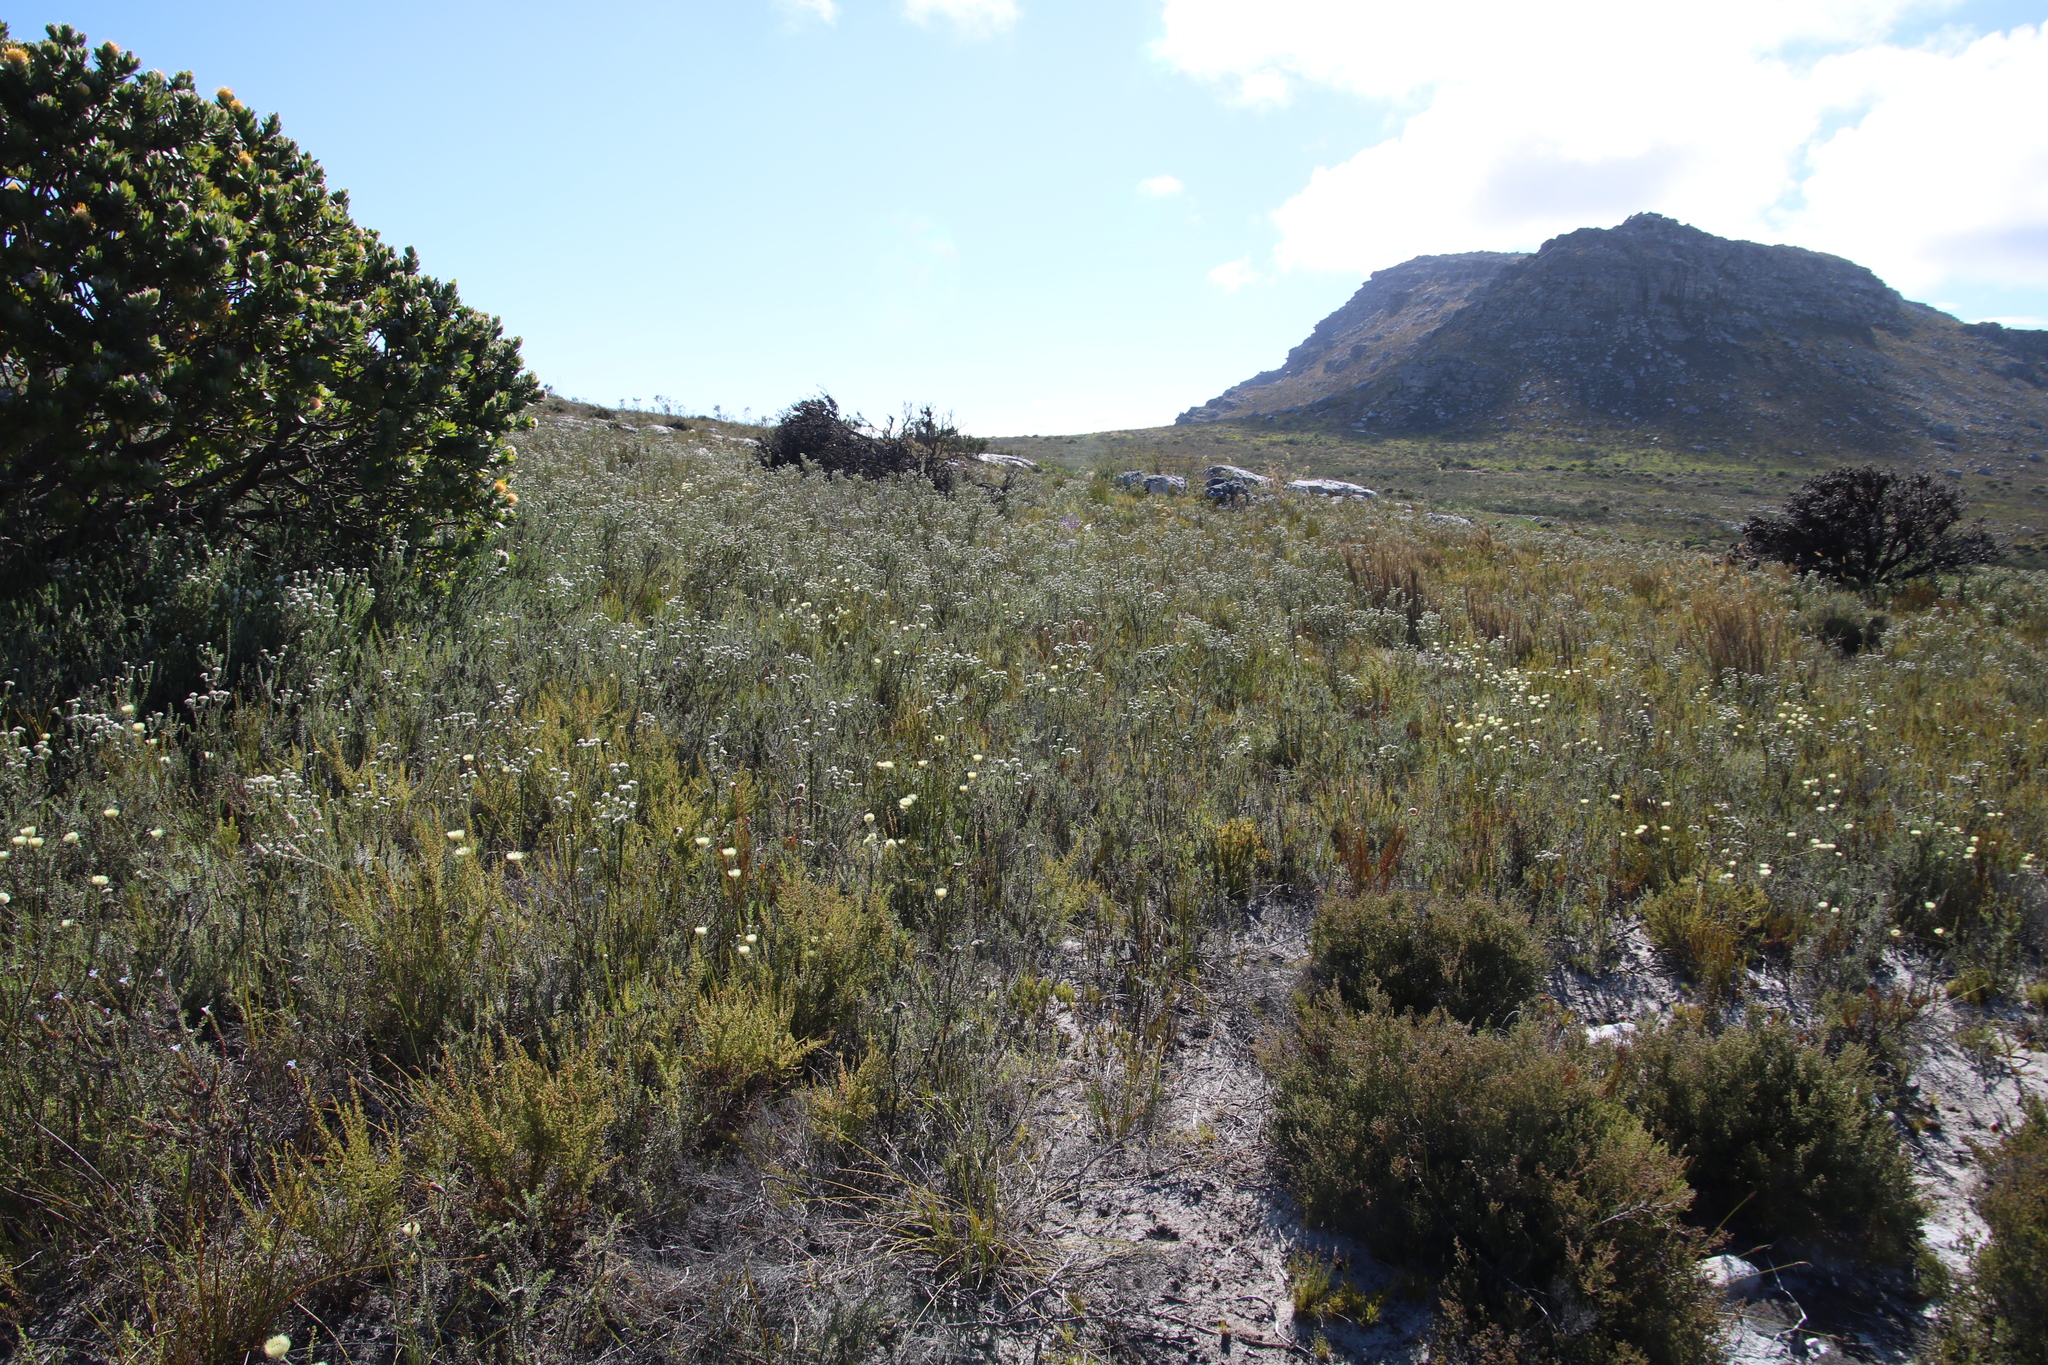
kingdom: Plantae
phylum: Tracheophyta
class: Magnoliopsida
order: Asterales
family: Asteraceae
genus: Metalasia
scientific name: Metalasia densa
